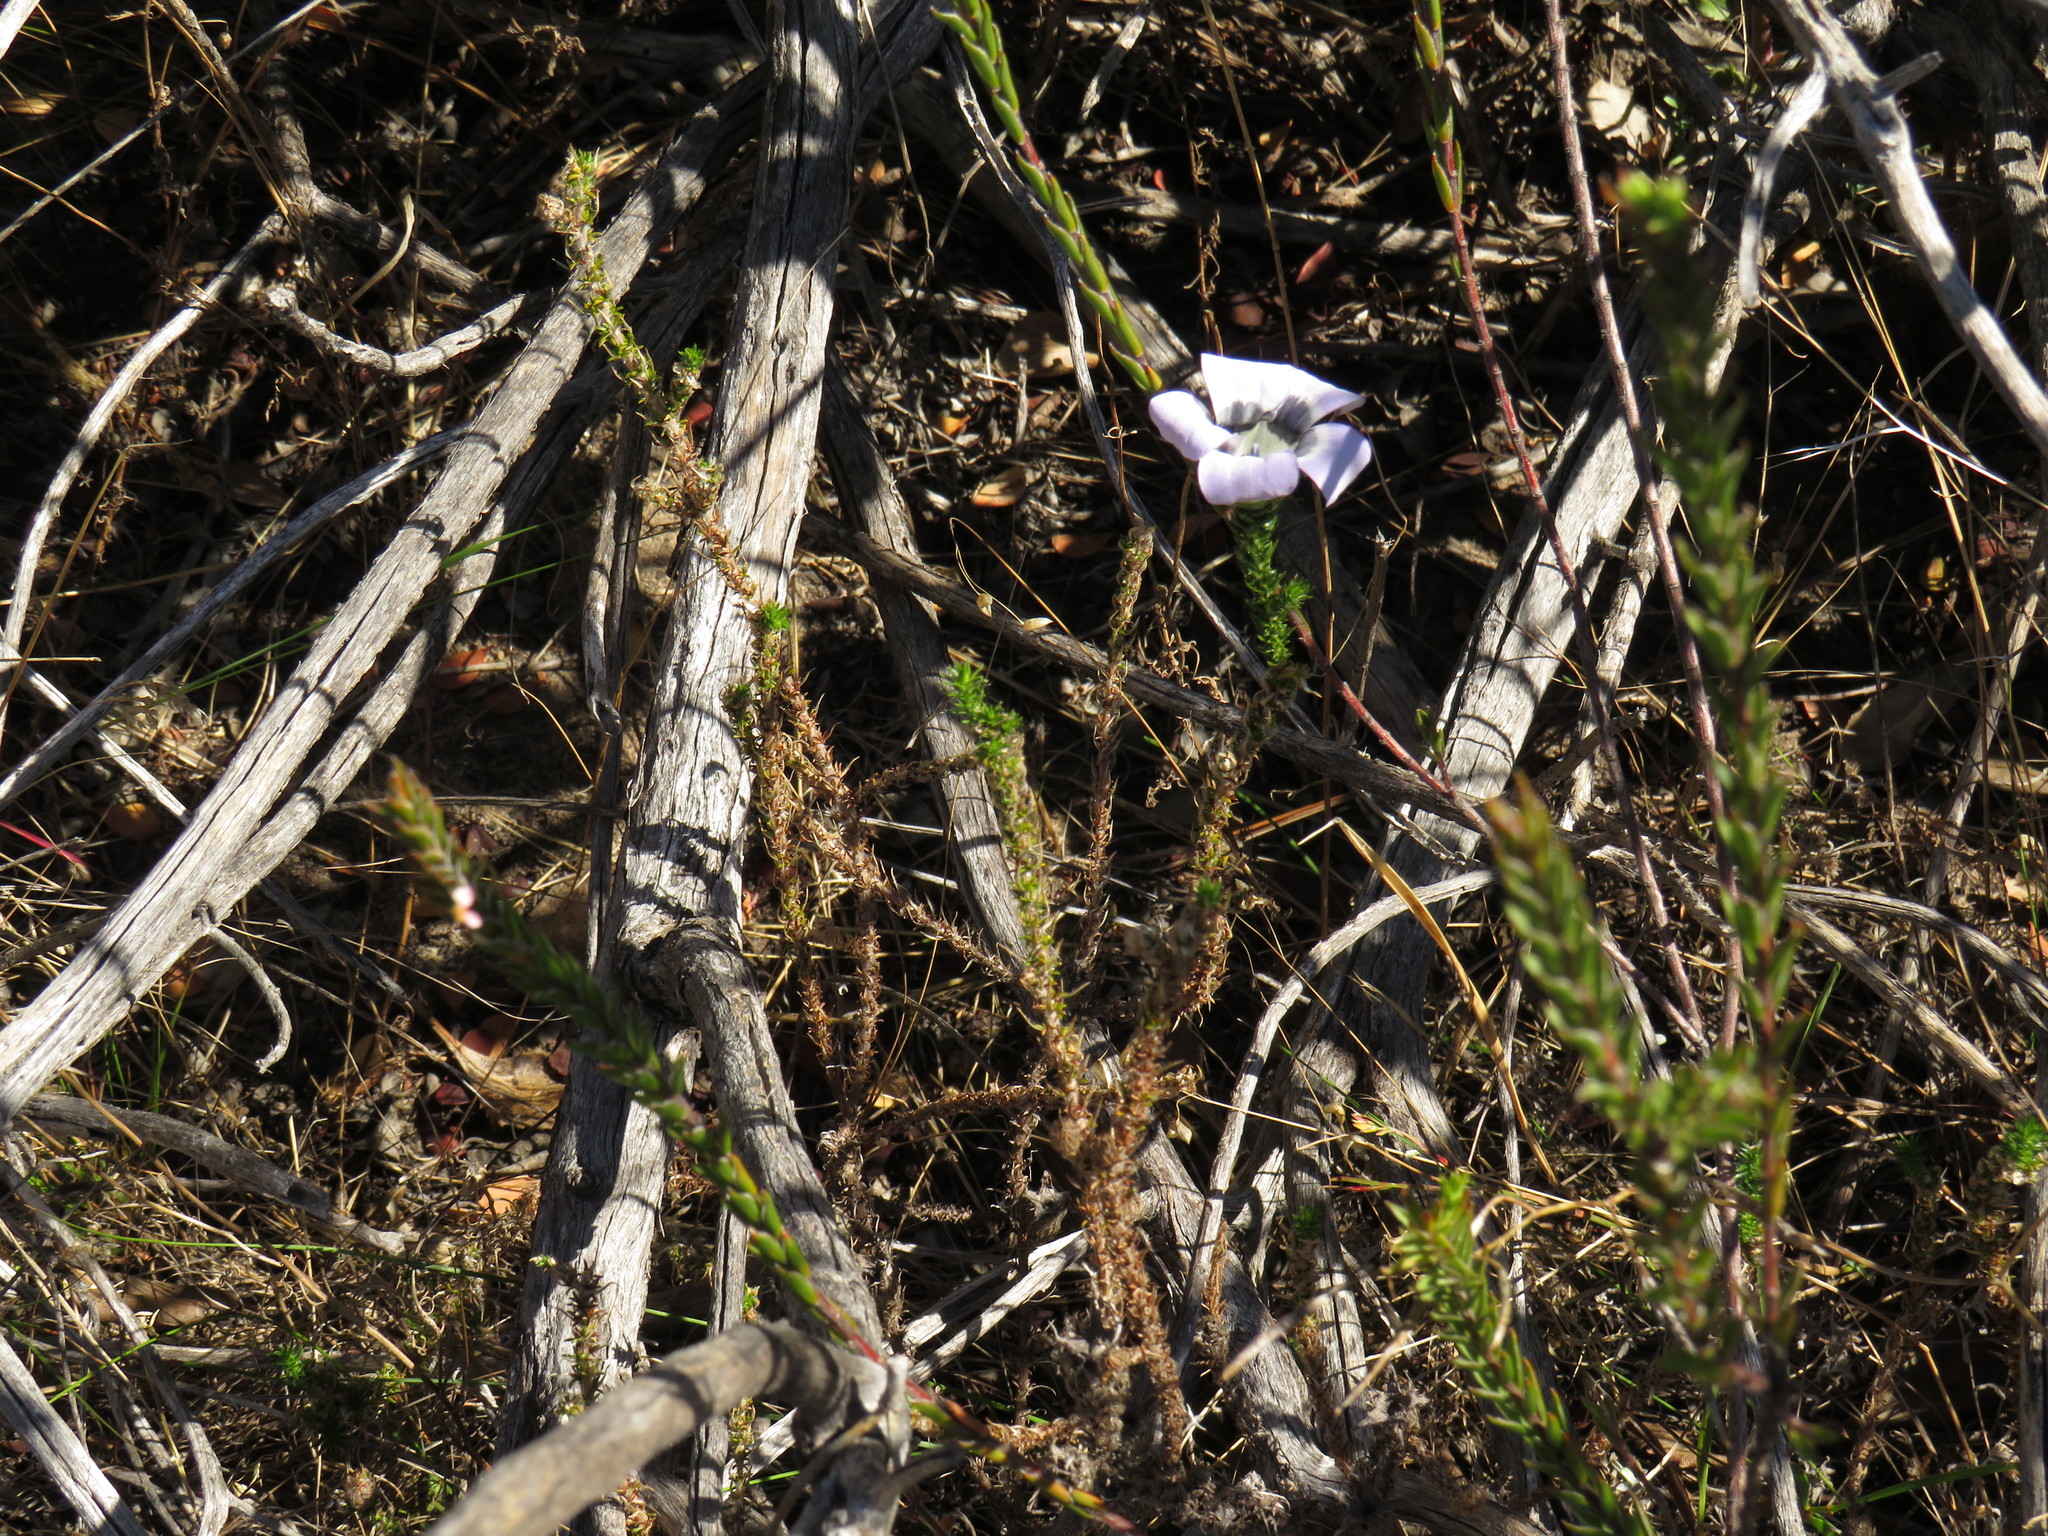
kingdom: Plantae
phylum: Tracheophyta
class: Magnoliopsida
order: Asterales
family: Campanulaceae
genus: Roella
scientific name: Roella ciliata
